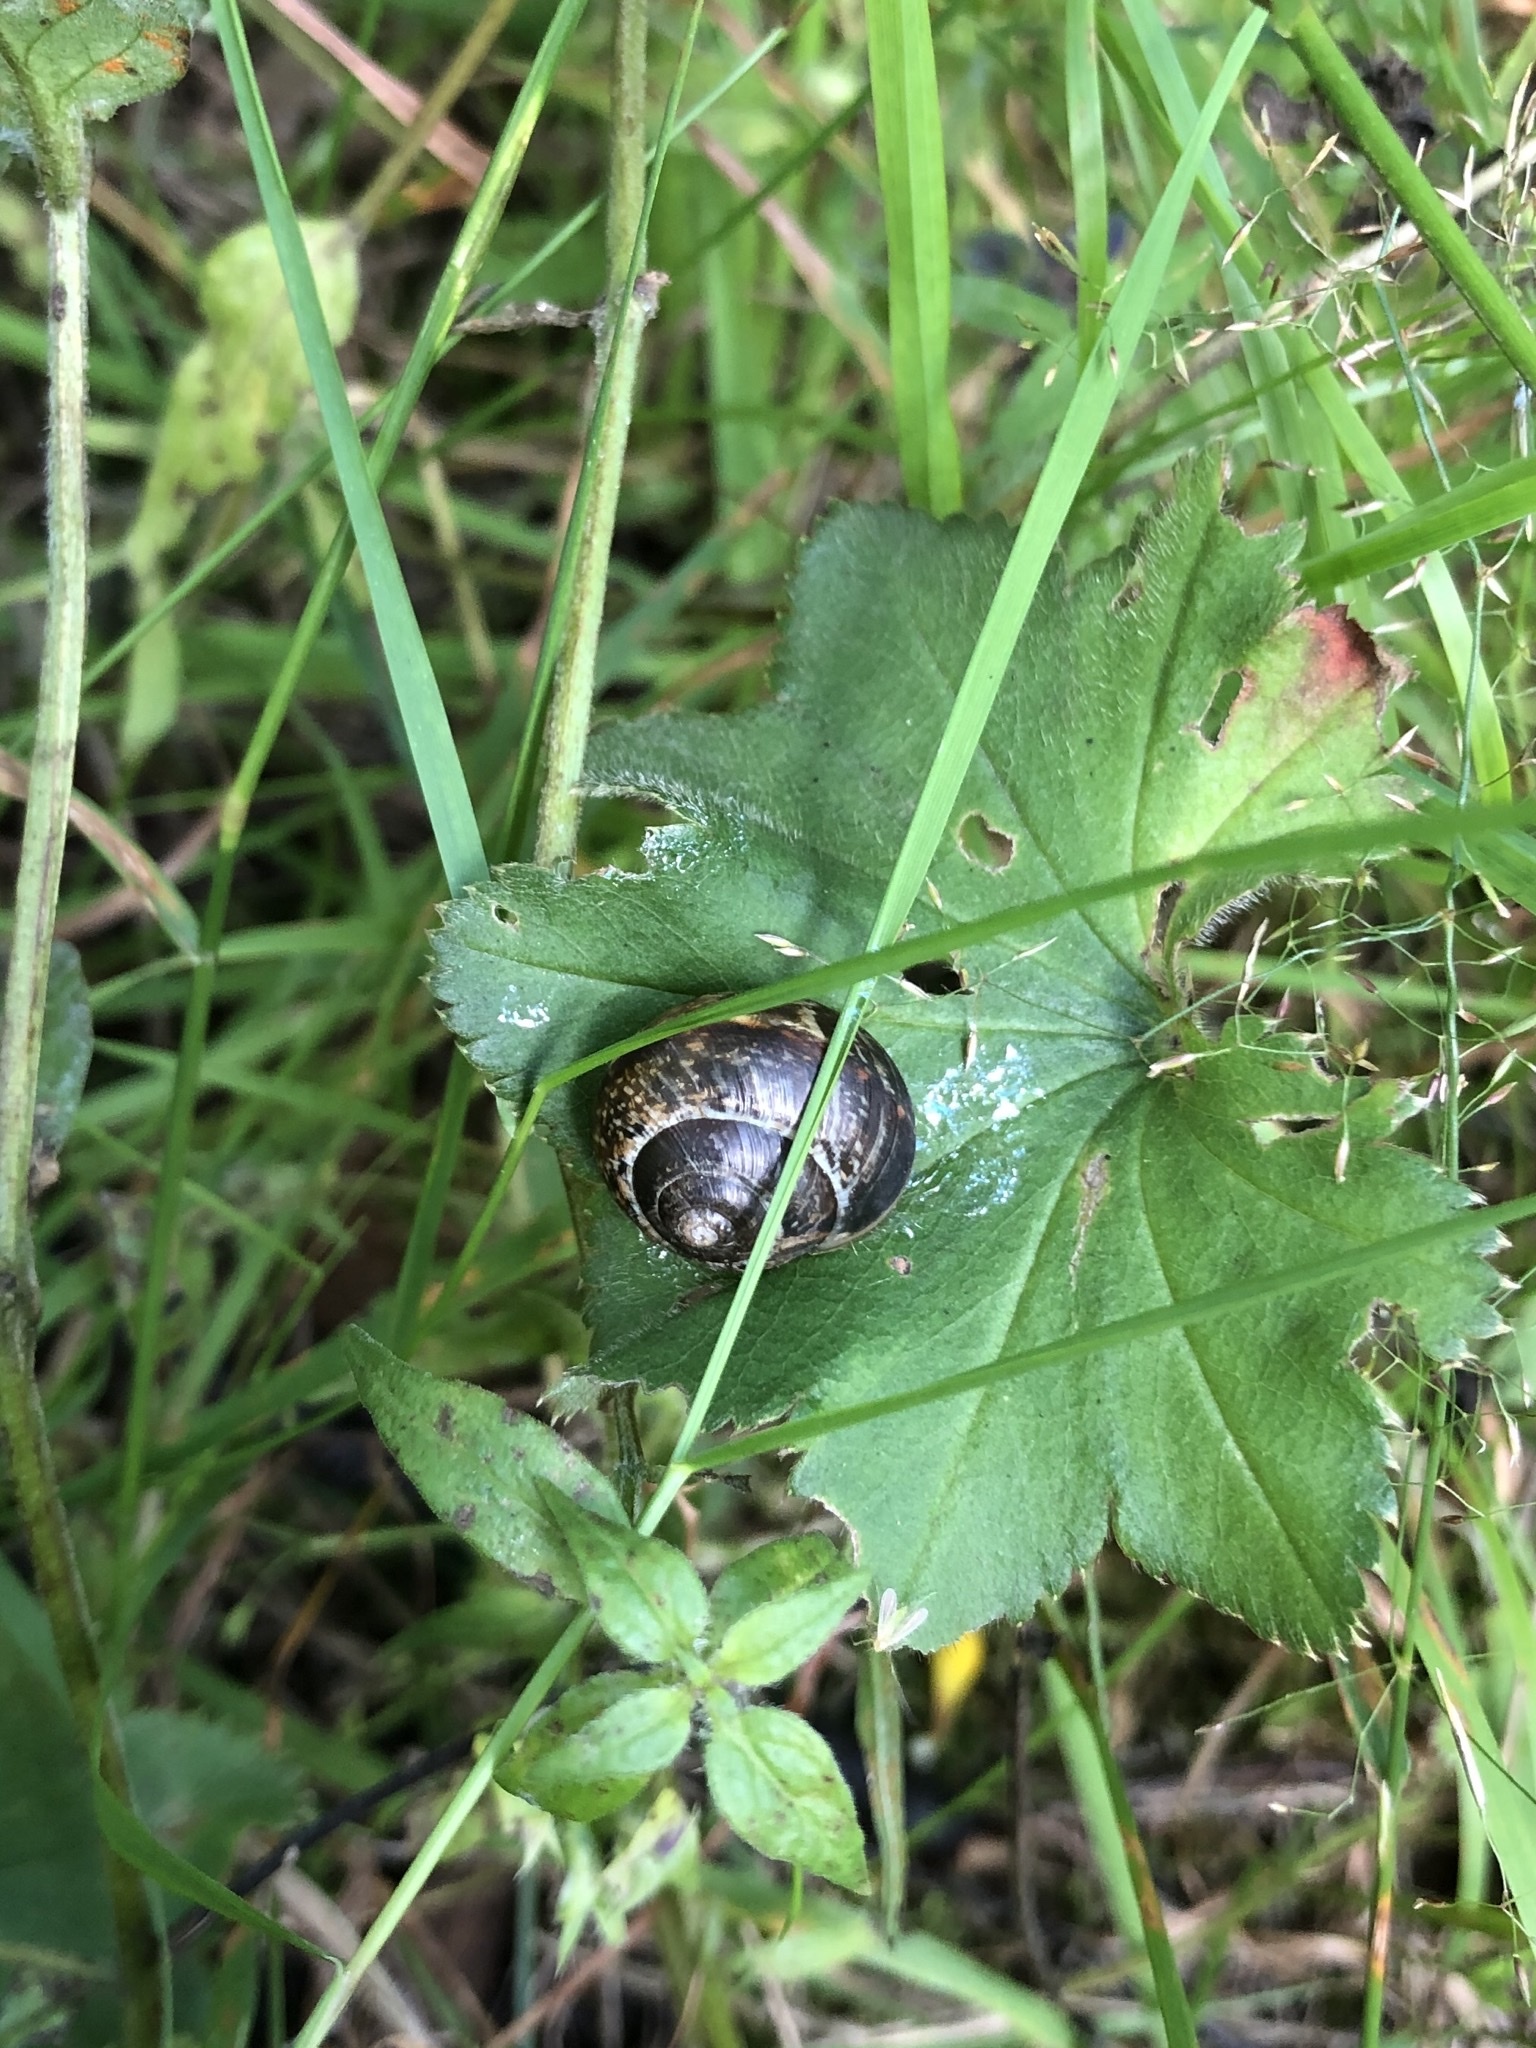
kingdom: Animalia
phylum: Mollusca
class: Gastropoda
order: Stylommatophora
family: Helicidae
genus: Arianta
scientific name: Arianta arbustorum
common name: Copse snail
